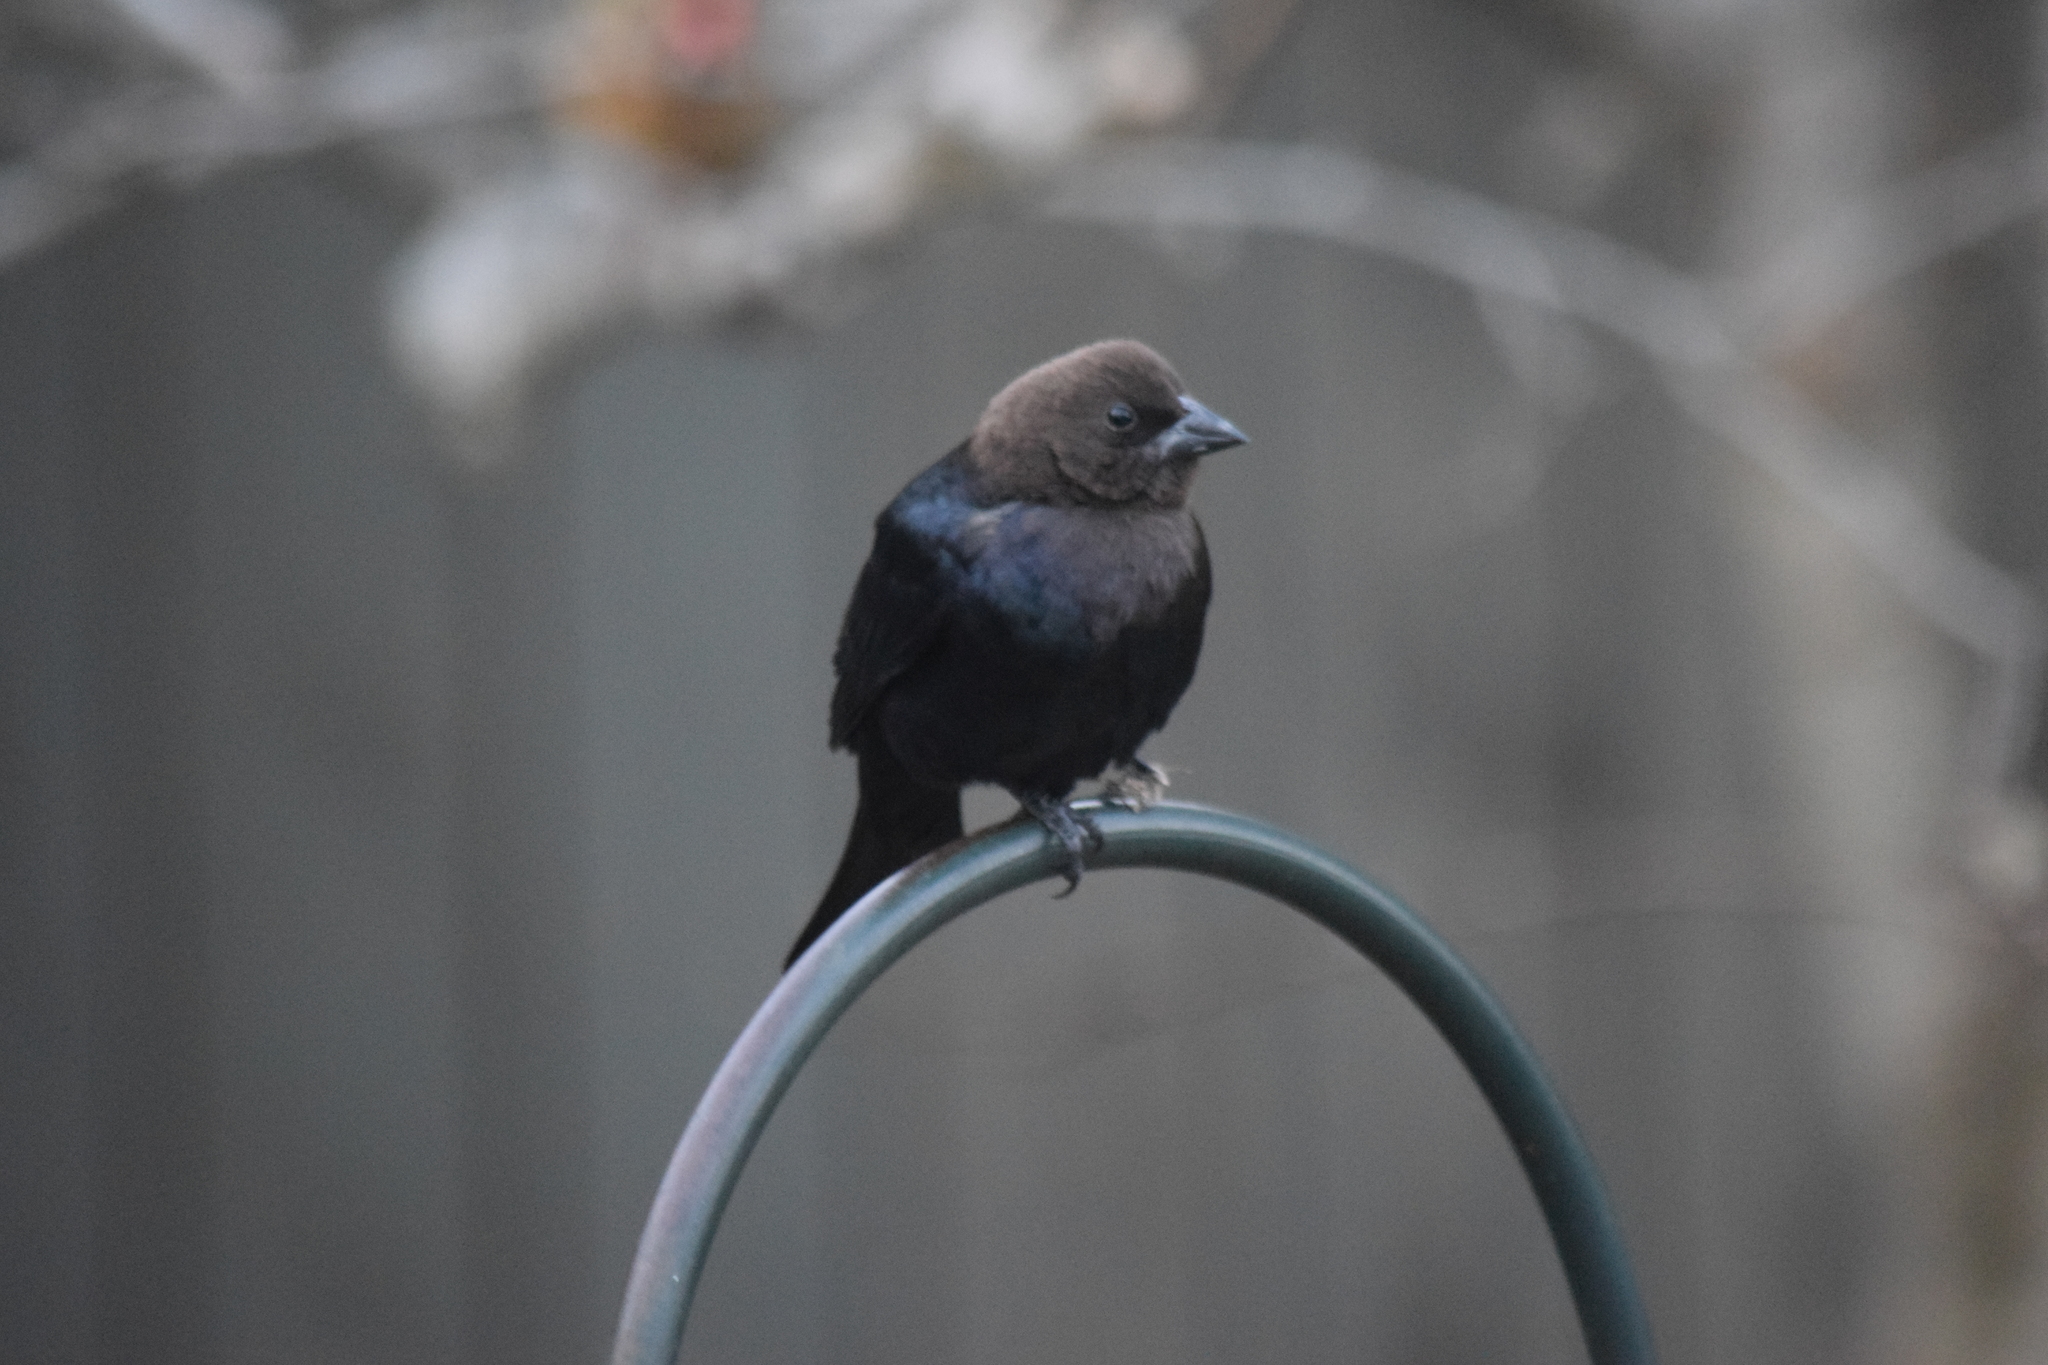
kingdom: Animalia
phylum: Chordata
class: Aves
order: Passeriformes
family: Icteridae
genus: Molothrus
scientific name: Molothrus ater
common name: Brown-headed cowbird
